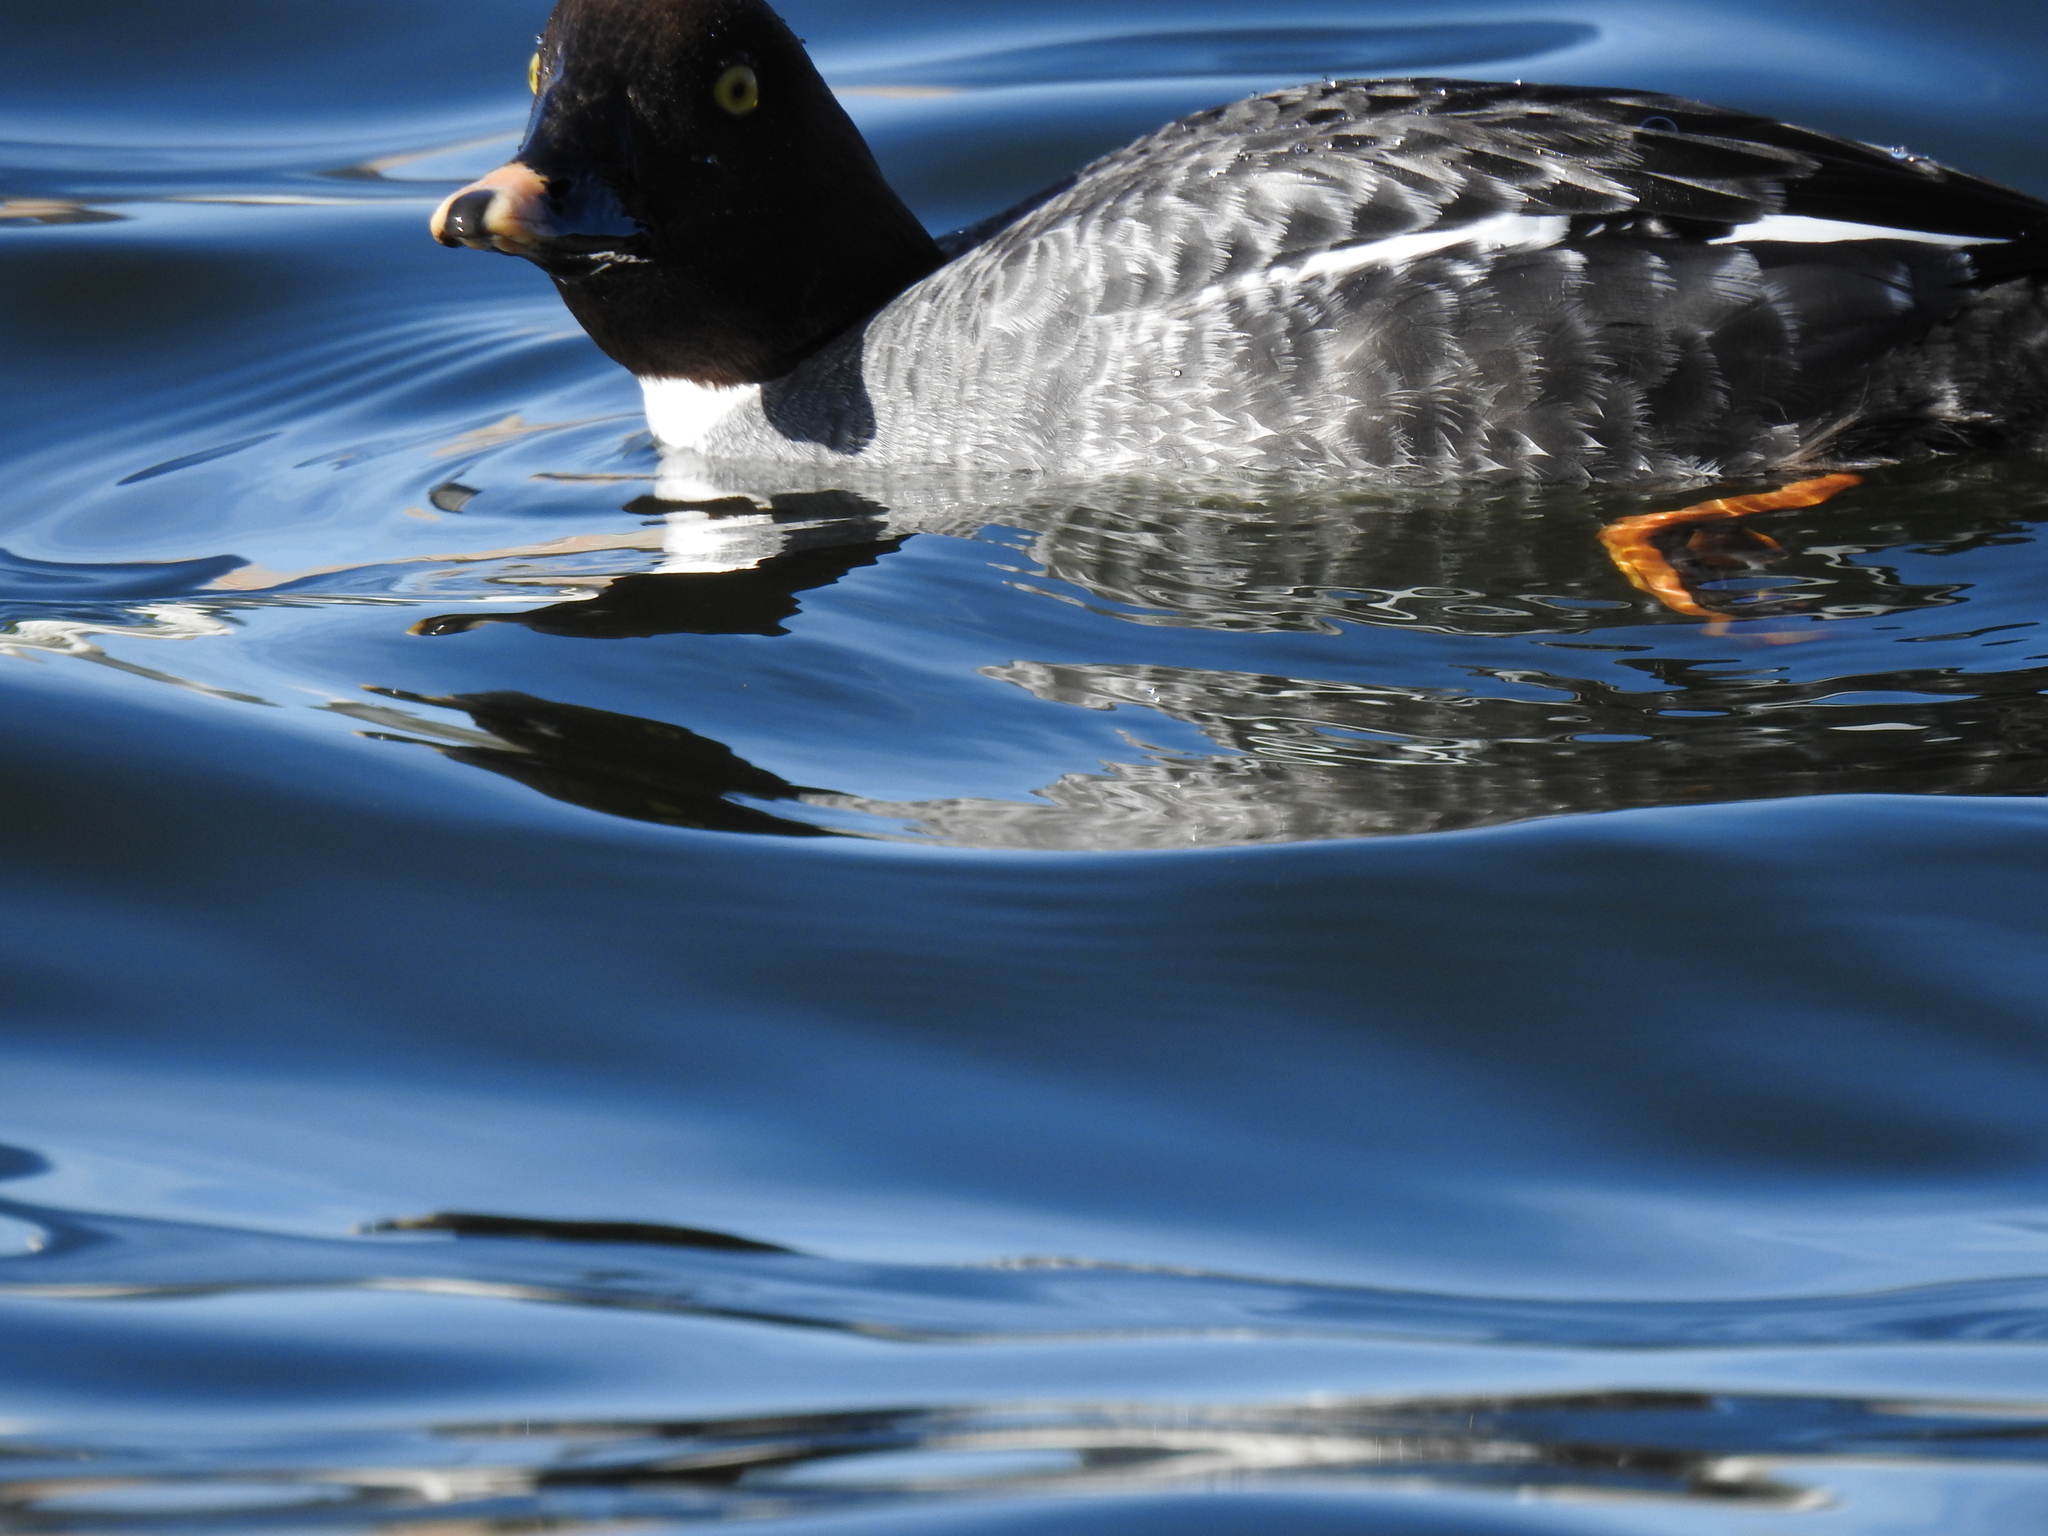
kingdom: Animalia
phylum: Chordata
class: Aves
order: Anseriformes
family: Anatidae
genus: Bucephala
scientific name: Bucephala clangula
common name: Common goldeneye
